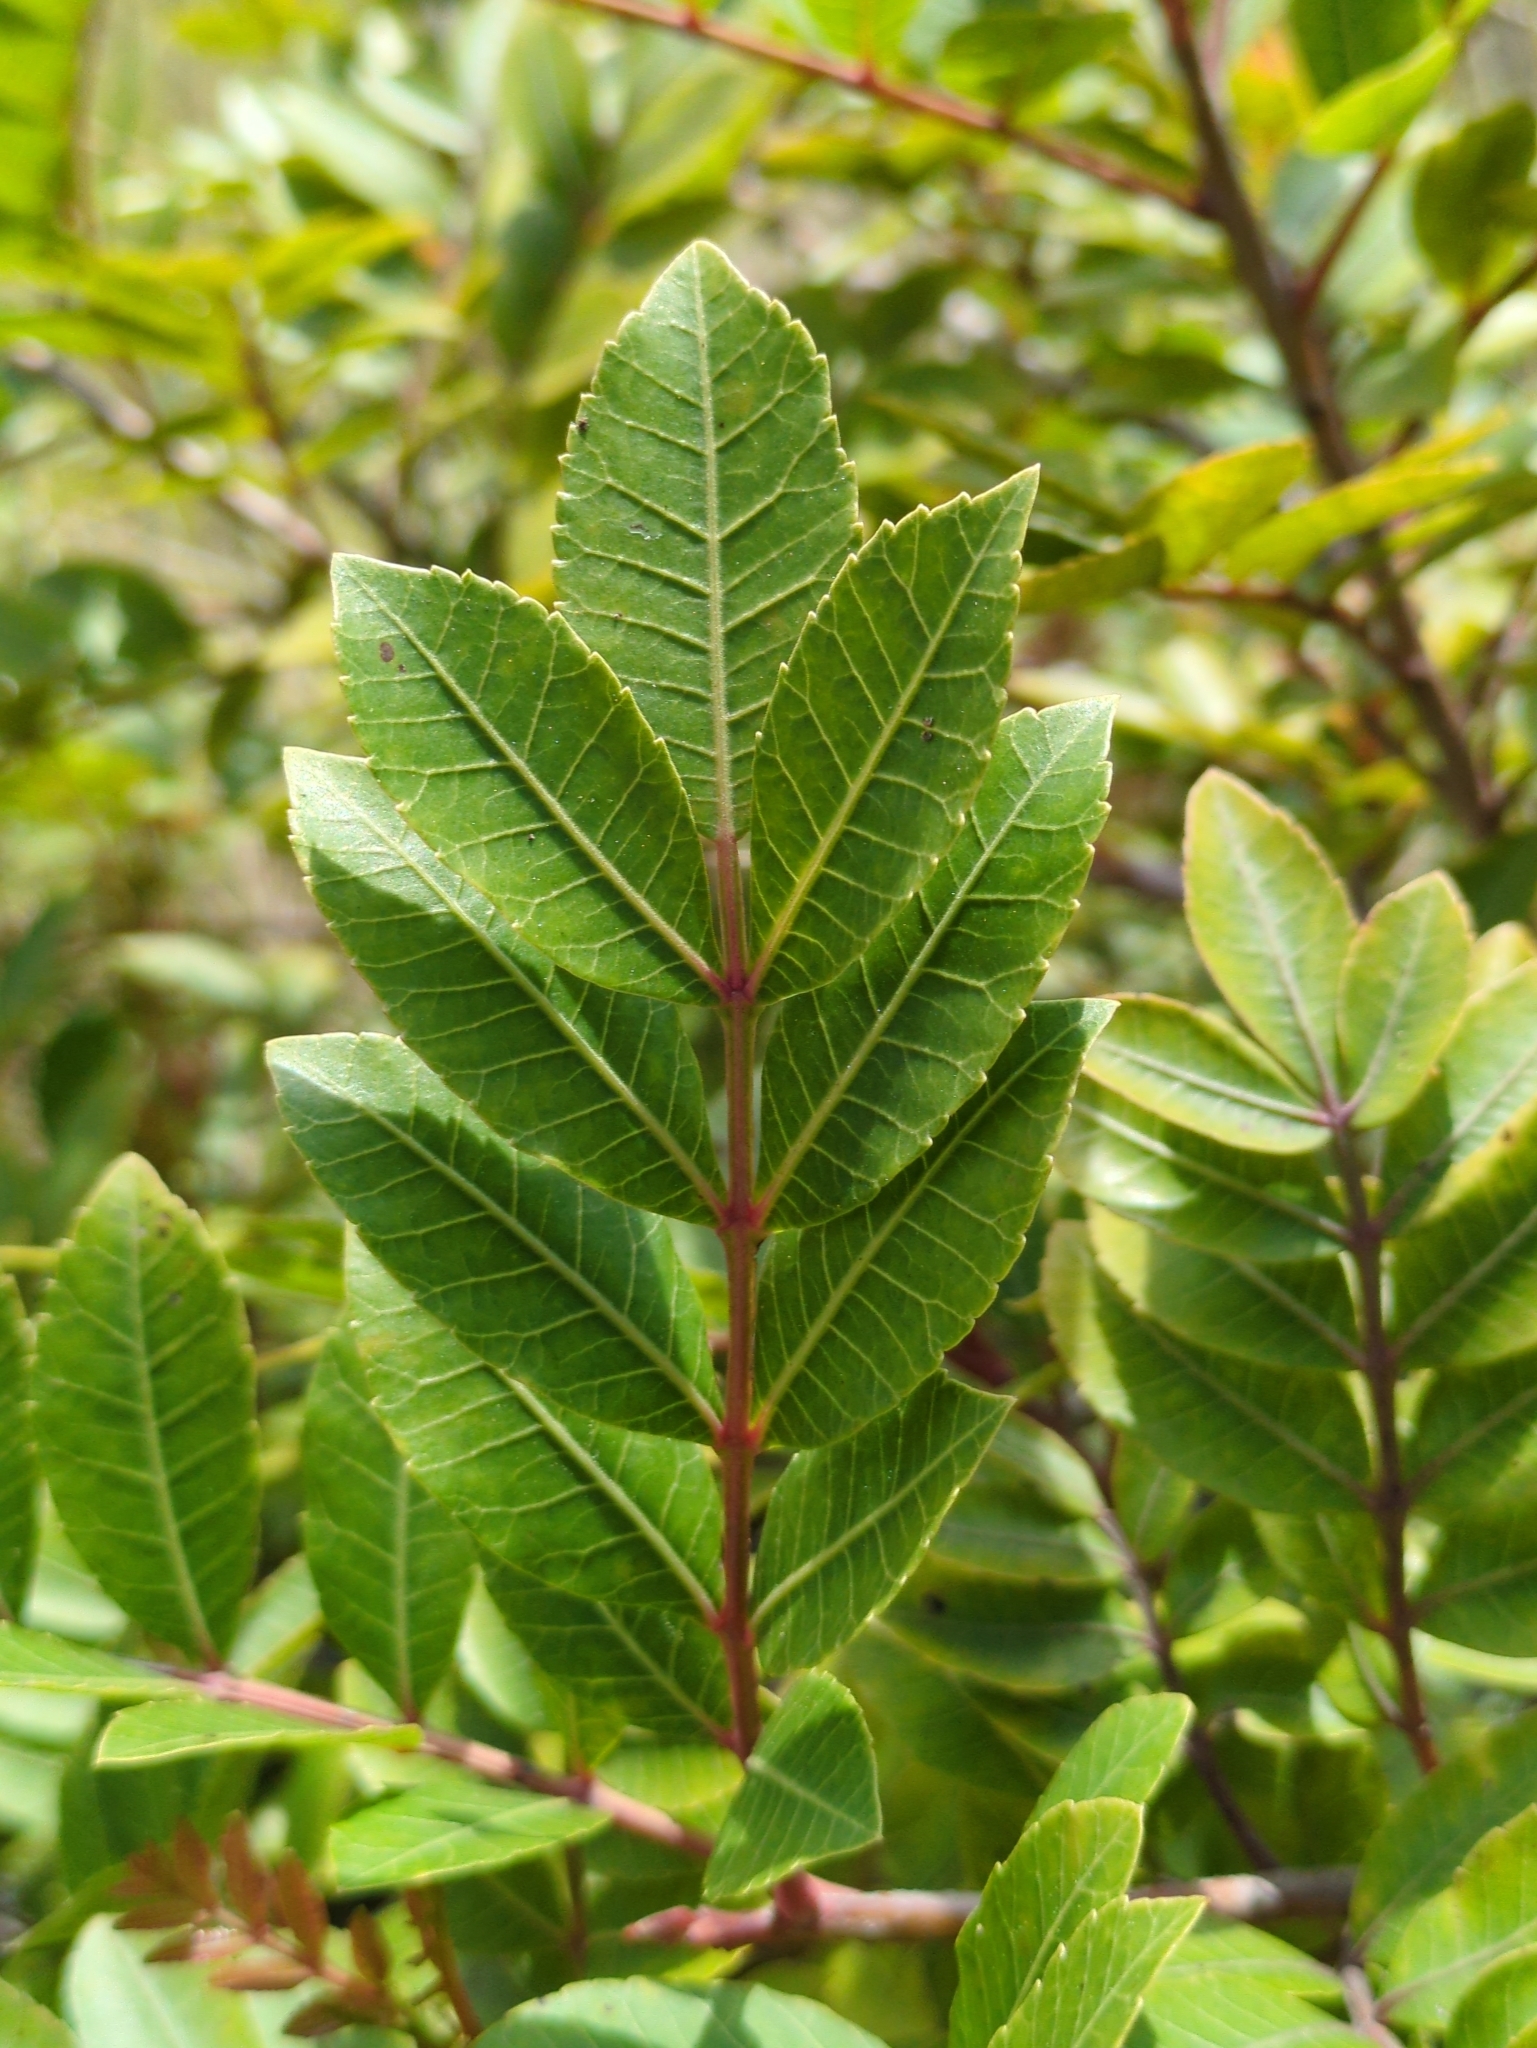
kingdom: Plantae
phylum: Tracheophyta
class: Magnoliopsida
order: Sapindales
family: Anacardiaceae
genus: Schinus
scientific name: Schinus terebinthifolia
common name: Brazilian peppertree
